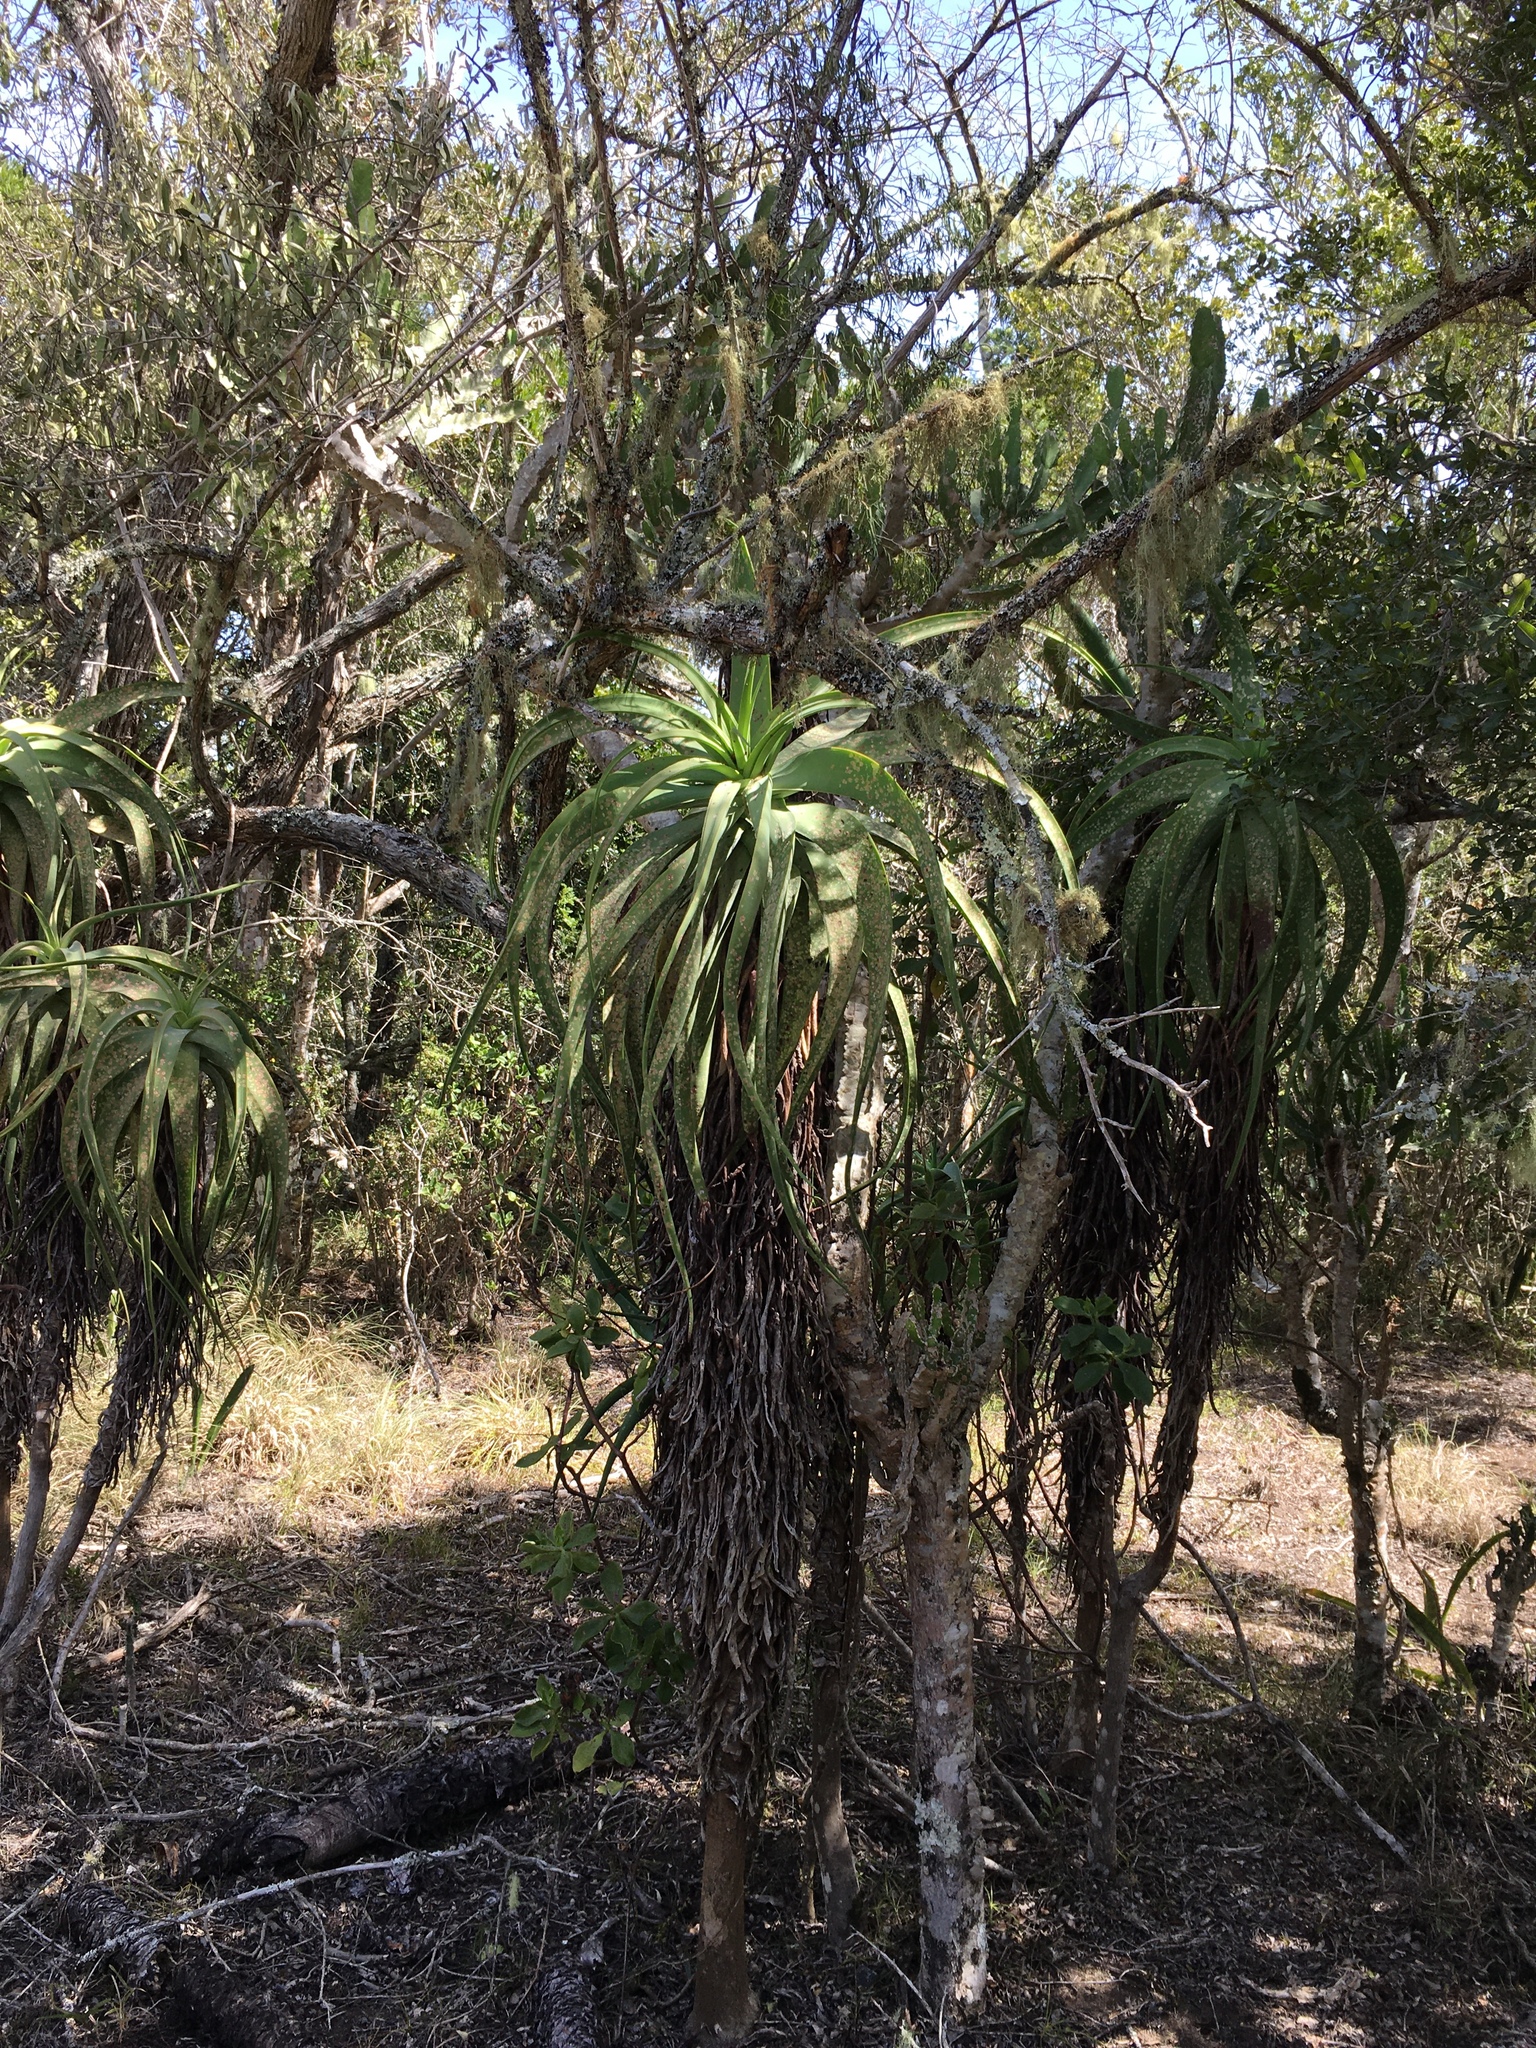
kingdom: Plantae
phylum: Tracheophyta
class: Liliopsida
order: Asparagales
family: Asphodelaceae
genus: Aloe
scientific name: Aloe speciosa
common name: Beautiful aloe
